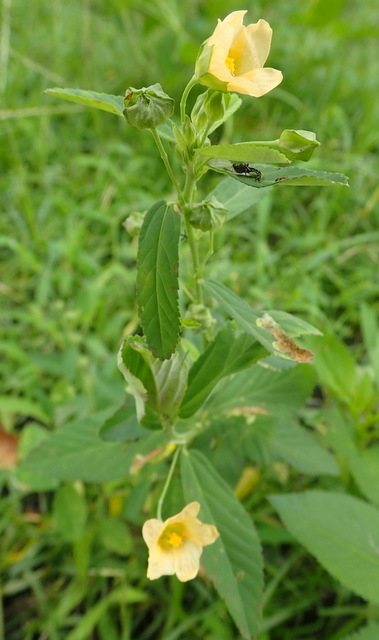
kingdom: Plantae
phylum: Tracheophyta
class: Magnoliopsida
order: Malvales
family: Malvaceae
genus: Sida
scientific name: Sida rhombifolia
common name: Queensland-hemp
